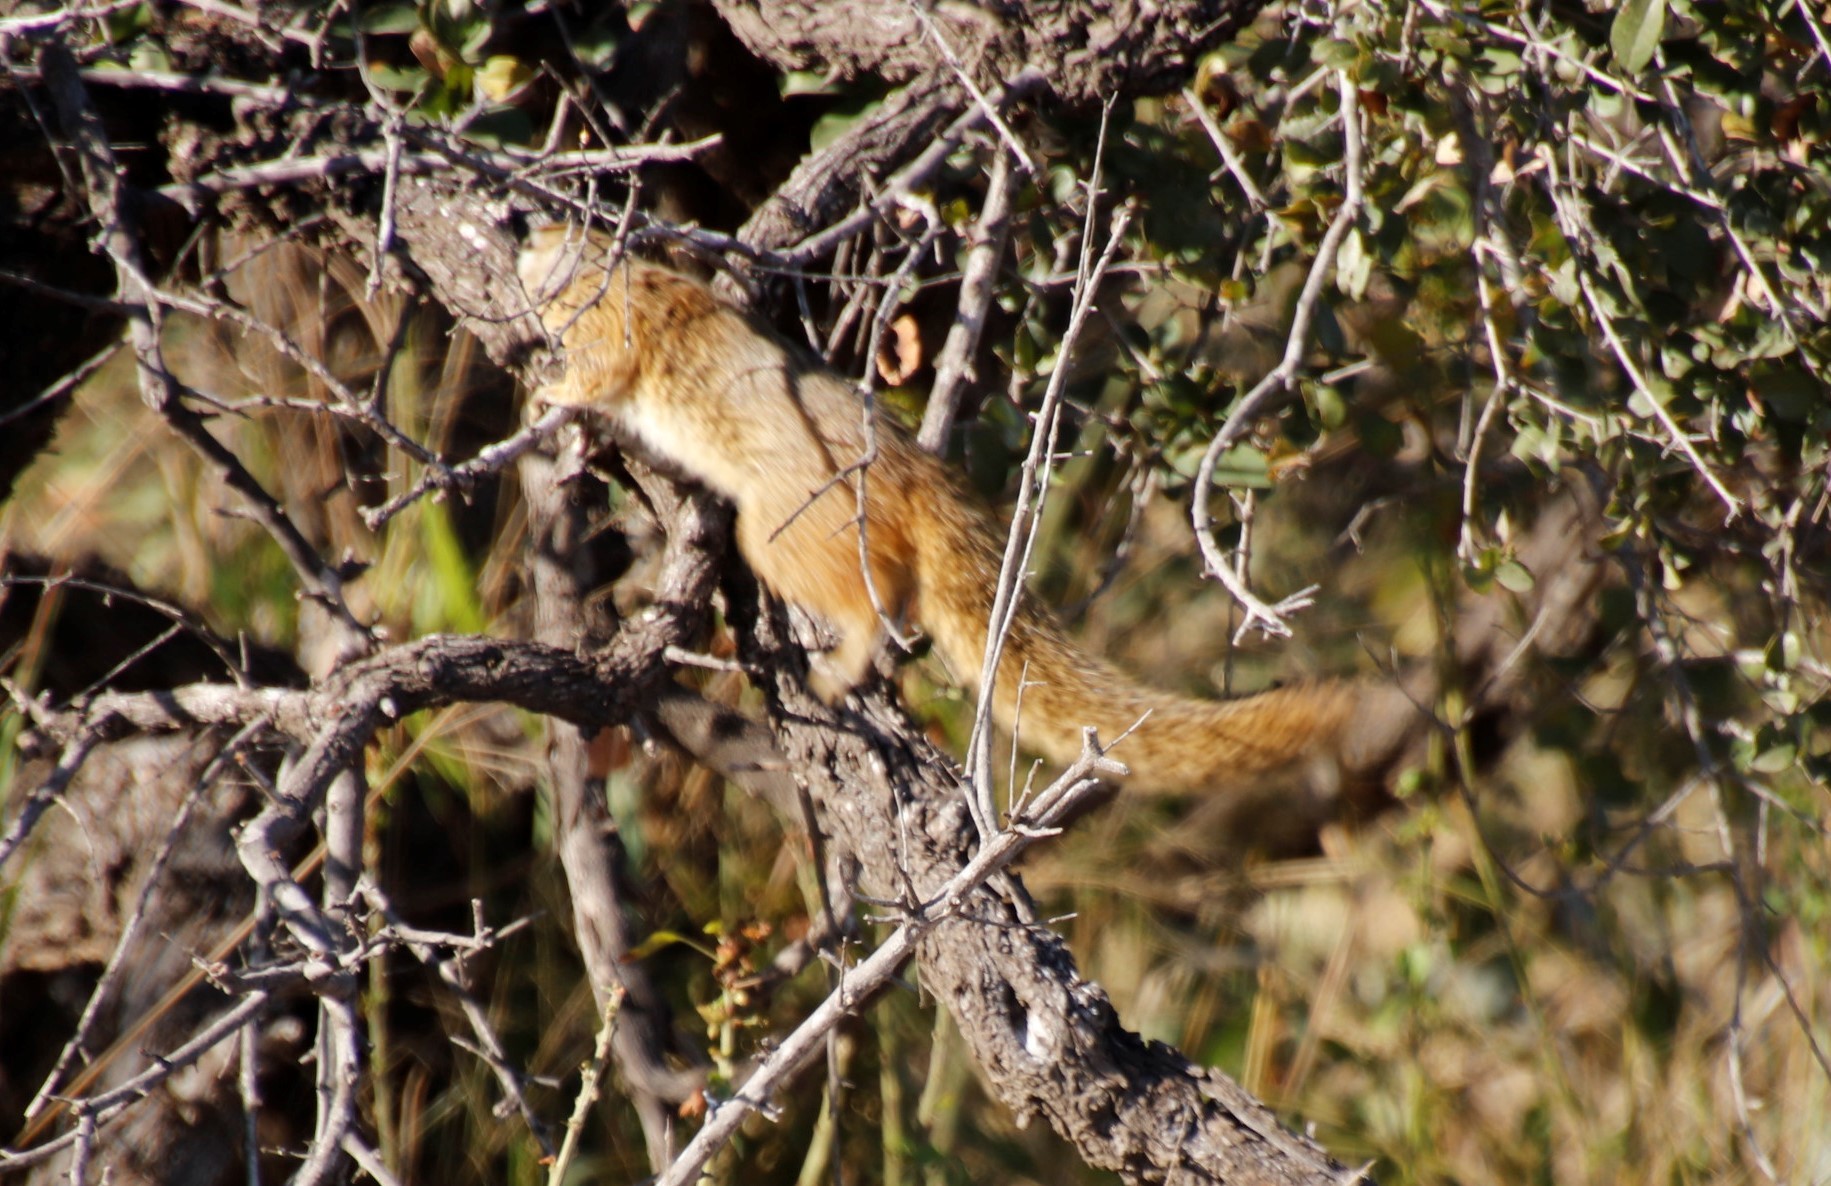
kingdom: Animalia
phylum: Chordata
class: Mammalia
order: Rodentia
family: Sciuridae
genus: Paraxerus
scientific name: Paraxerus cepapi
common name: Smith's bush squirrel
